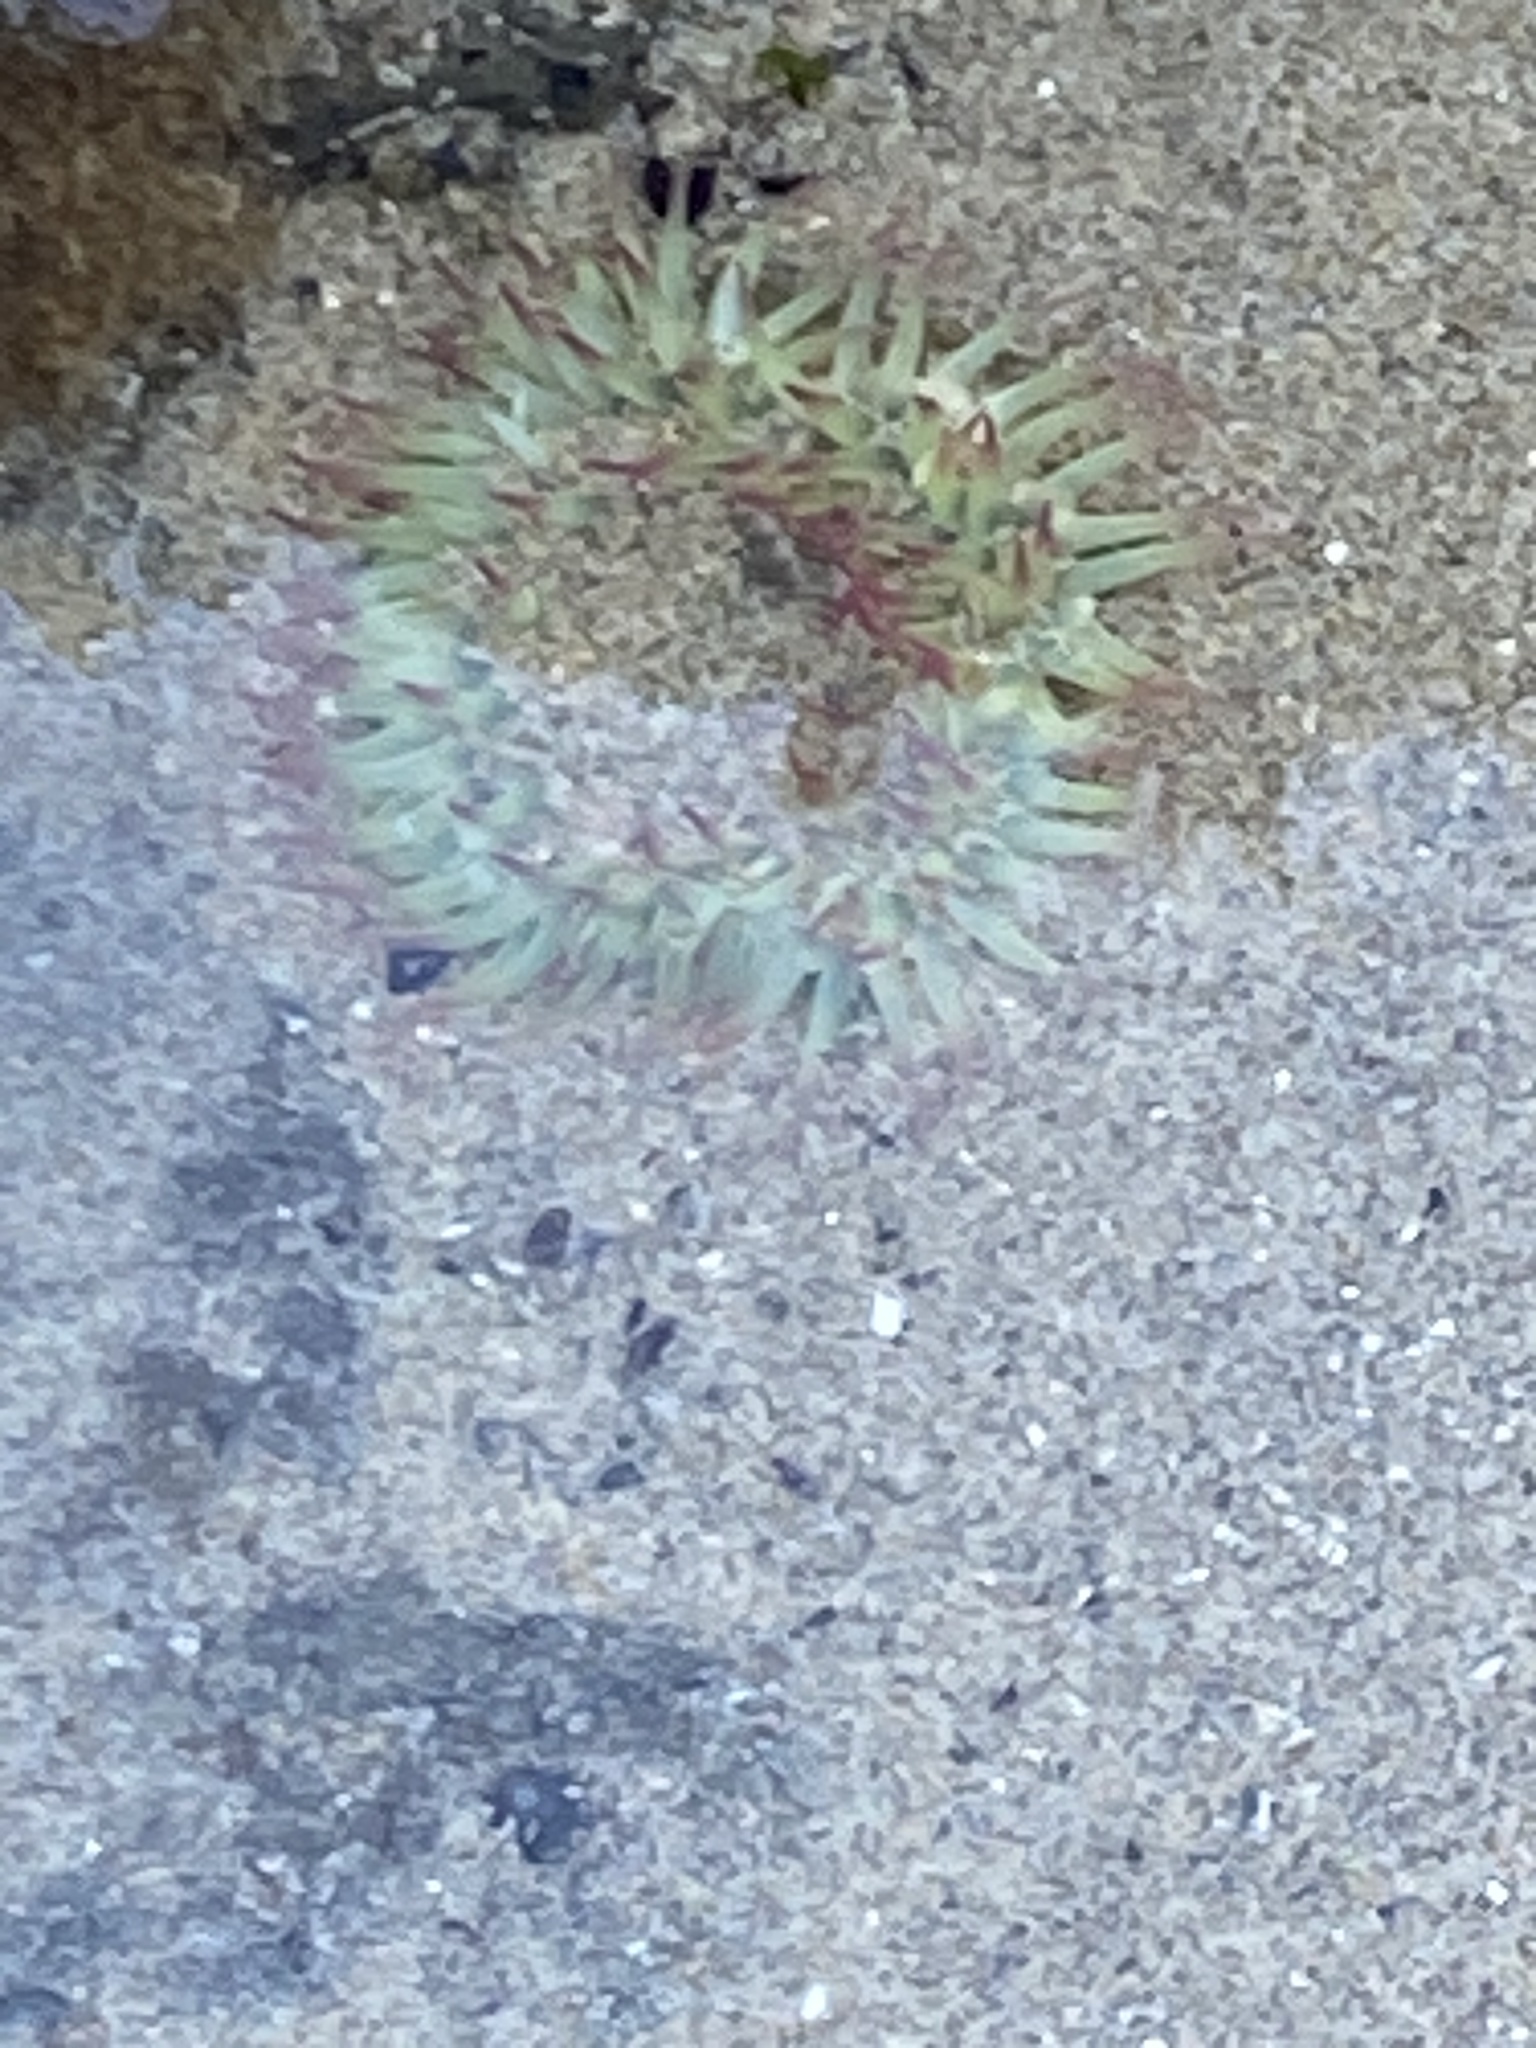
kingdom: Animalia
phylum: Cnidaria
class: Anthozoa
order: Actiniaria
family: Actiniidae
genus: Anthopleura
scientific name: Anthopleura elegantissima
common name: Clonal anemone
